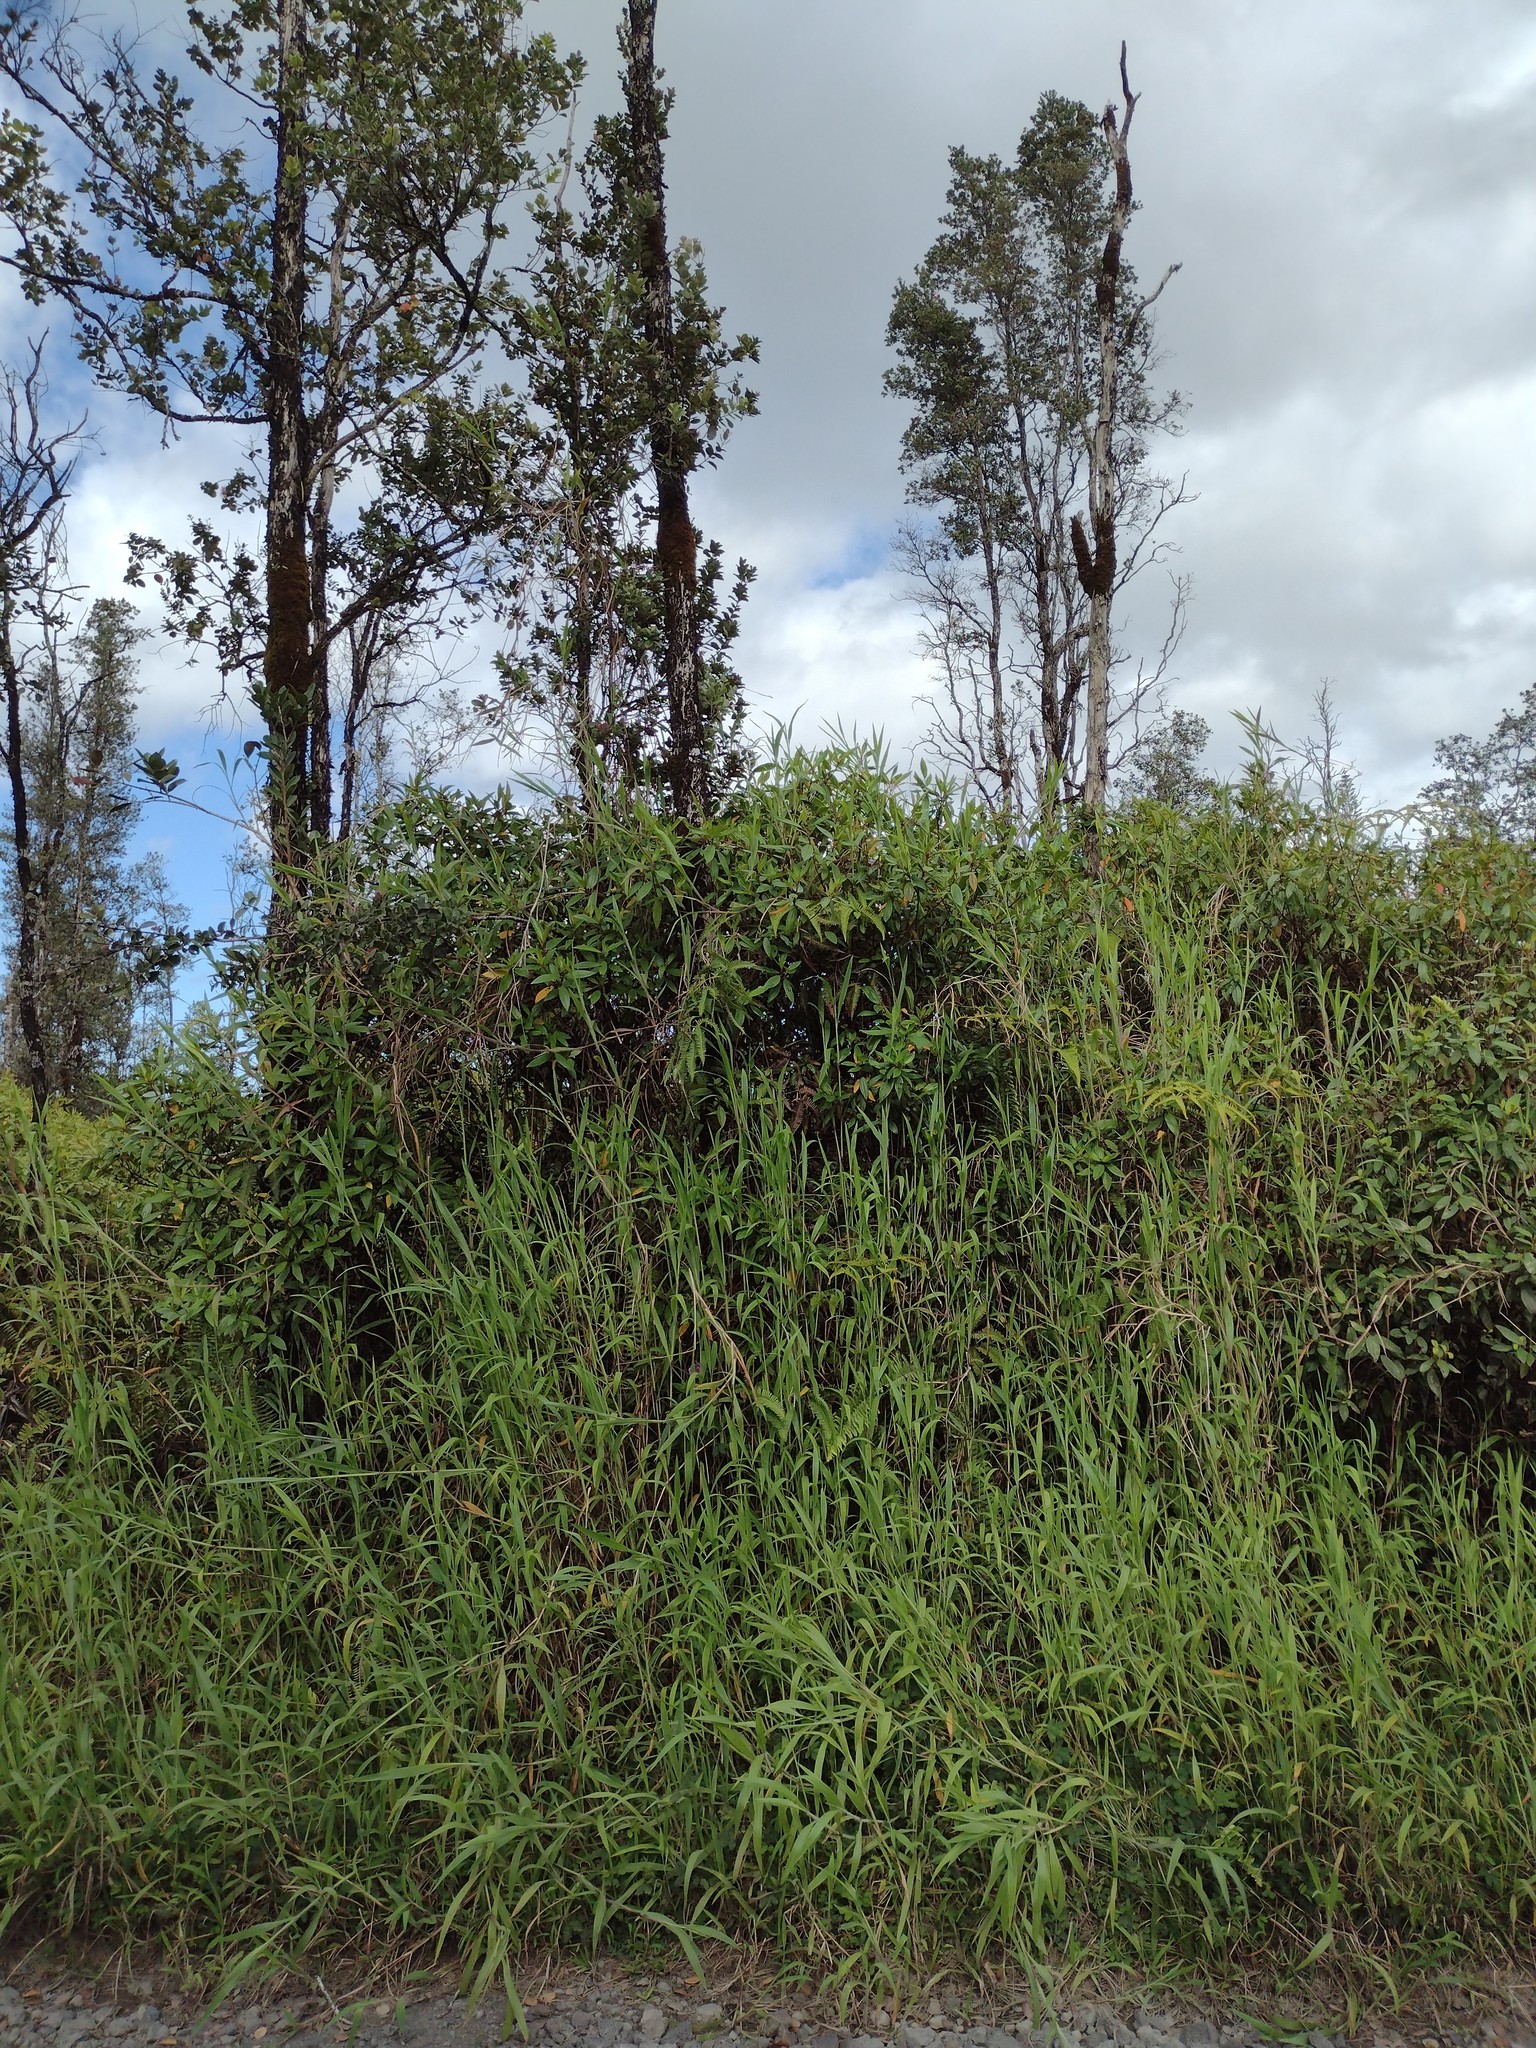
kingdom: Plantae
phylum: Tracheophyta
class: Polypodiopsida
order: Gleicheniales
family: Gleicheniaceae
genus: Dicranopteris
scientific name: Dicranopteris linearis
